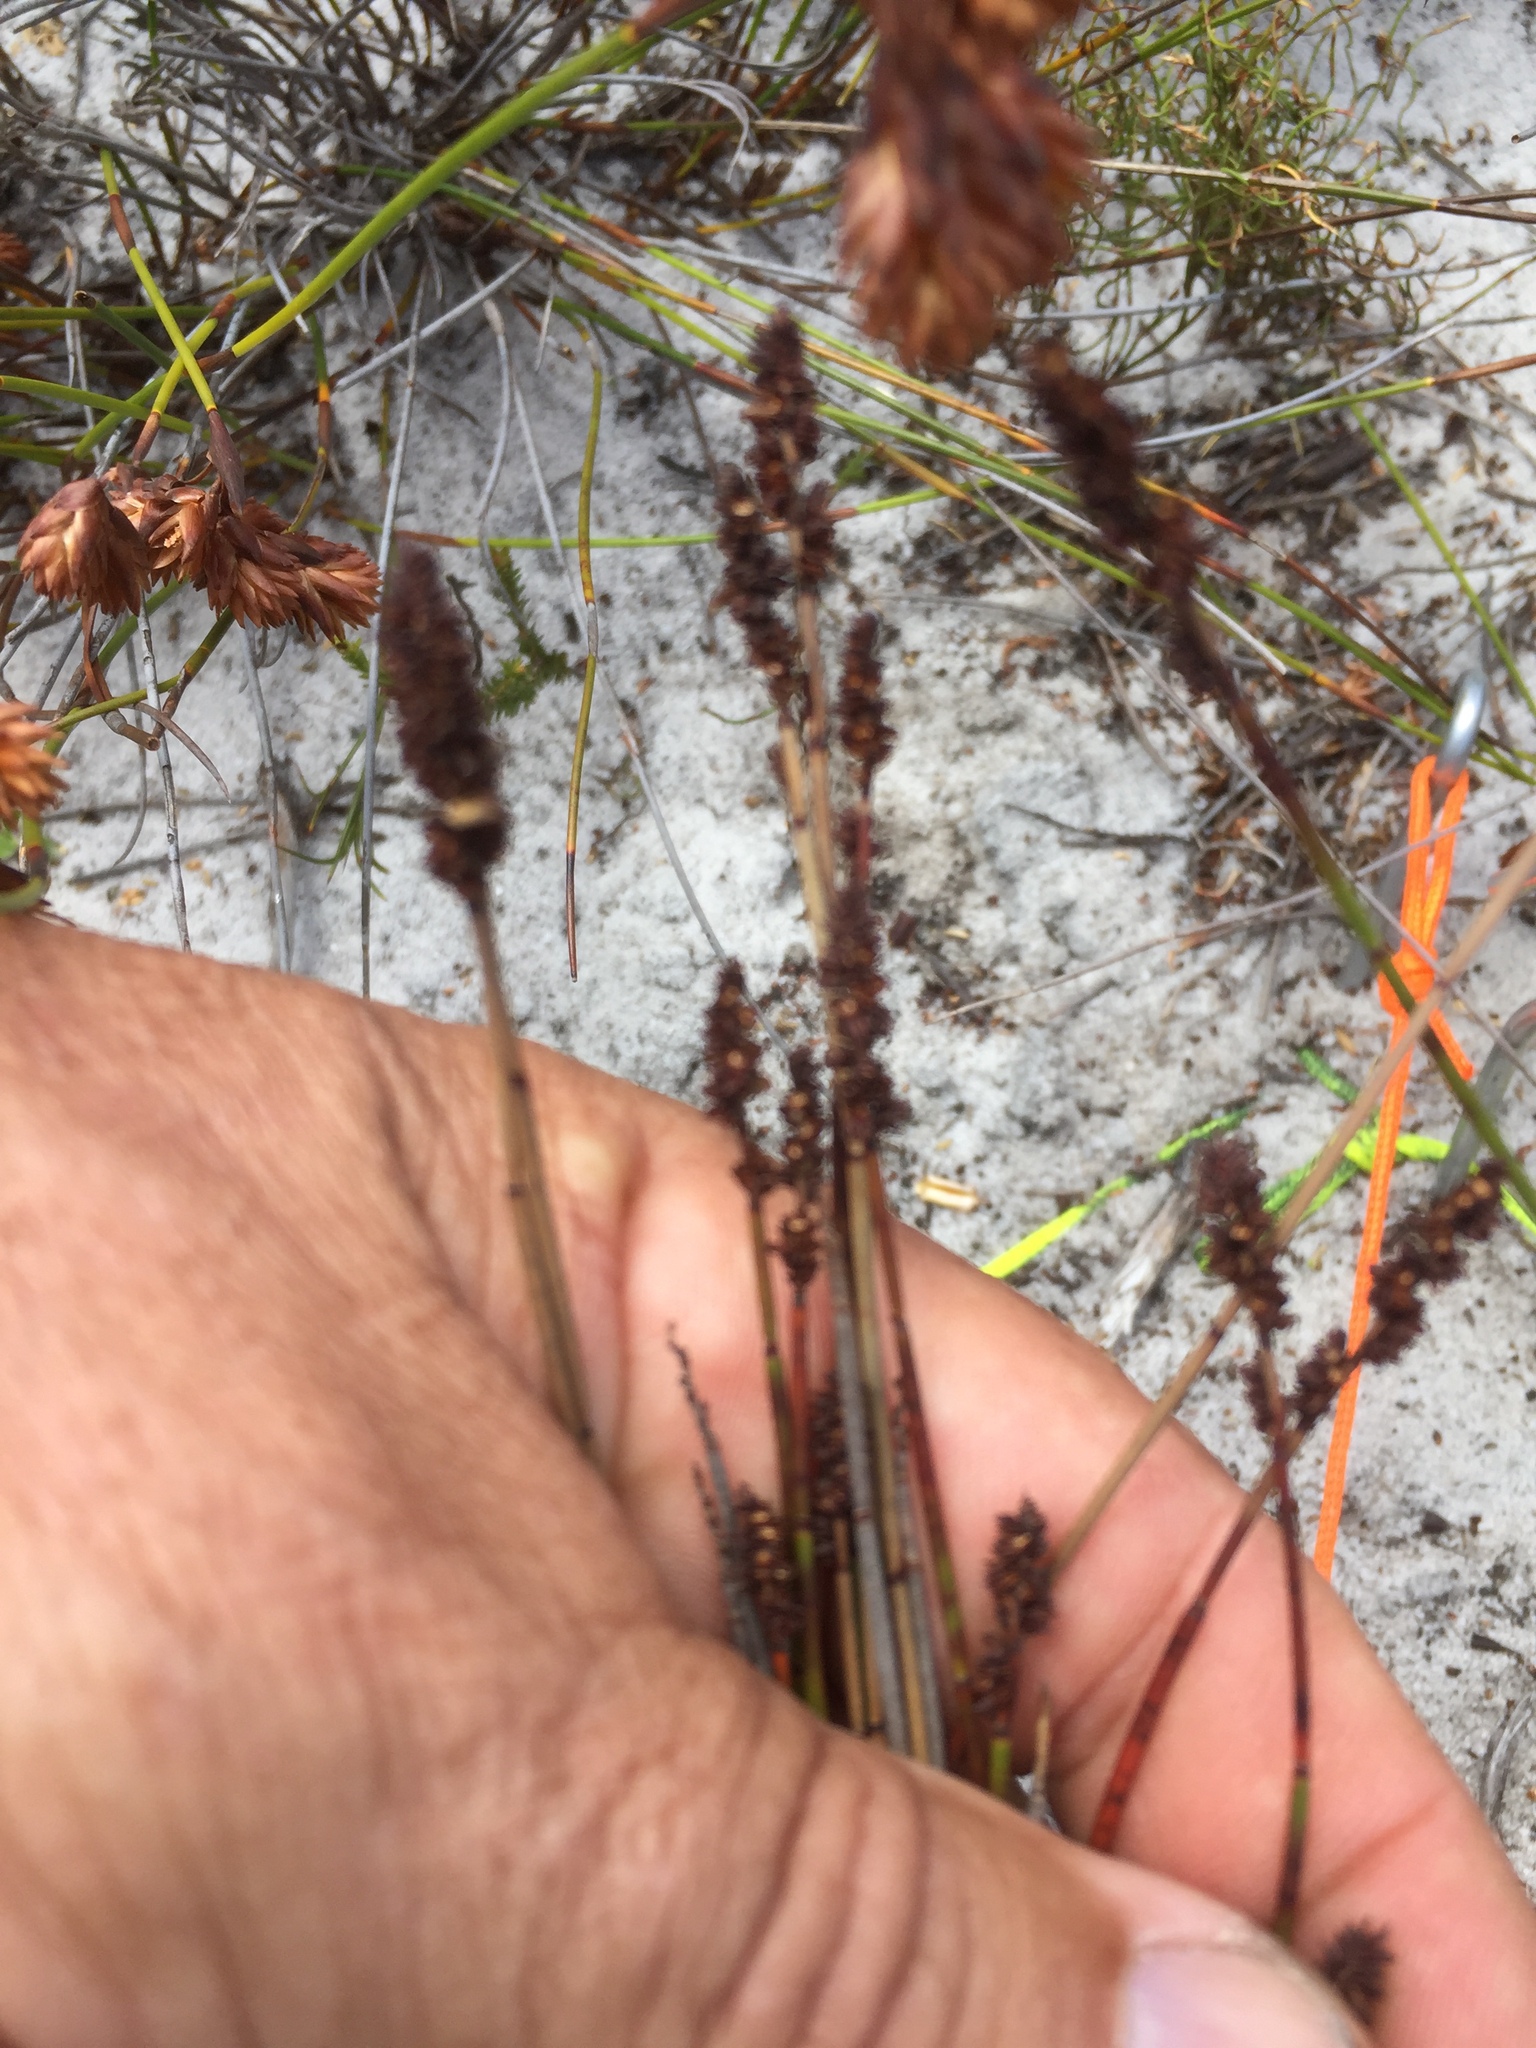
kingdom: Plantae
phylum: Tracheophyta
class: Liliopsida
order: Poales
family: Restionaceae
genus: Elegia
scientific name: Elegia nuda
